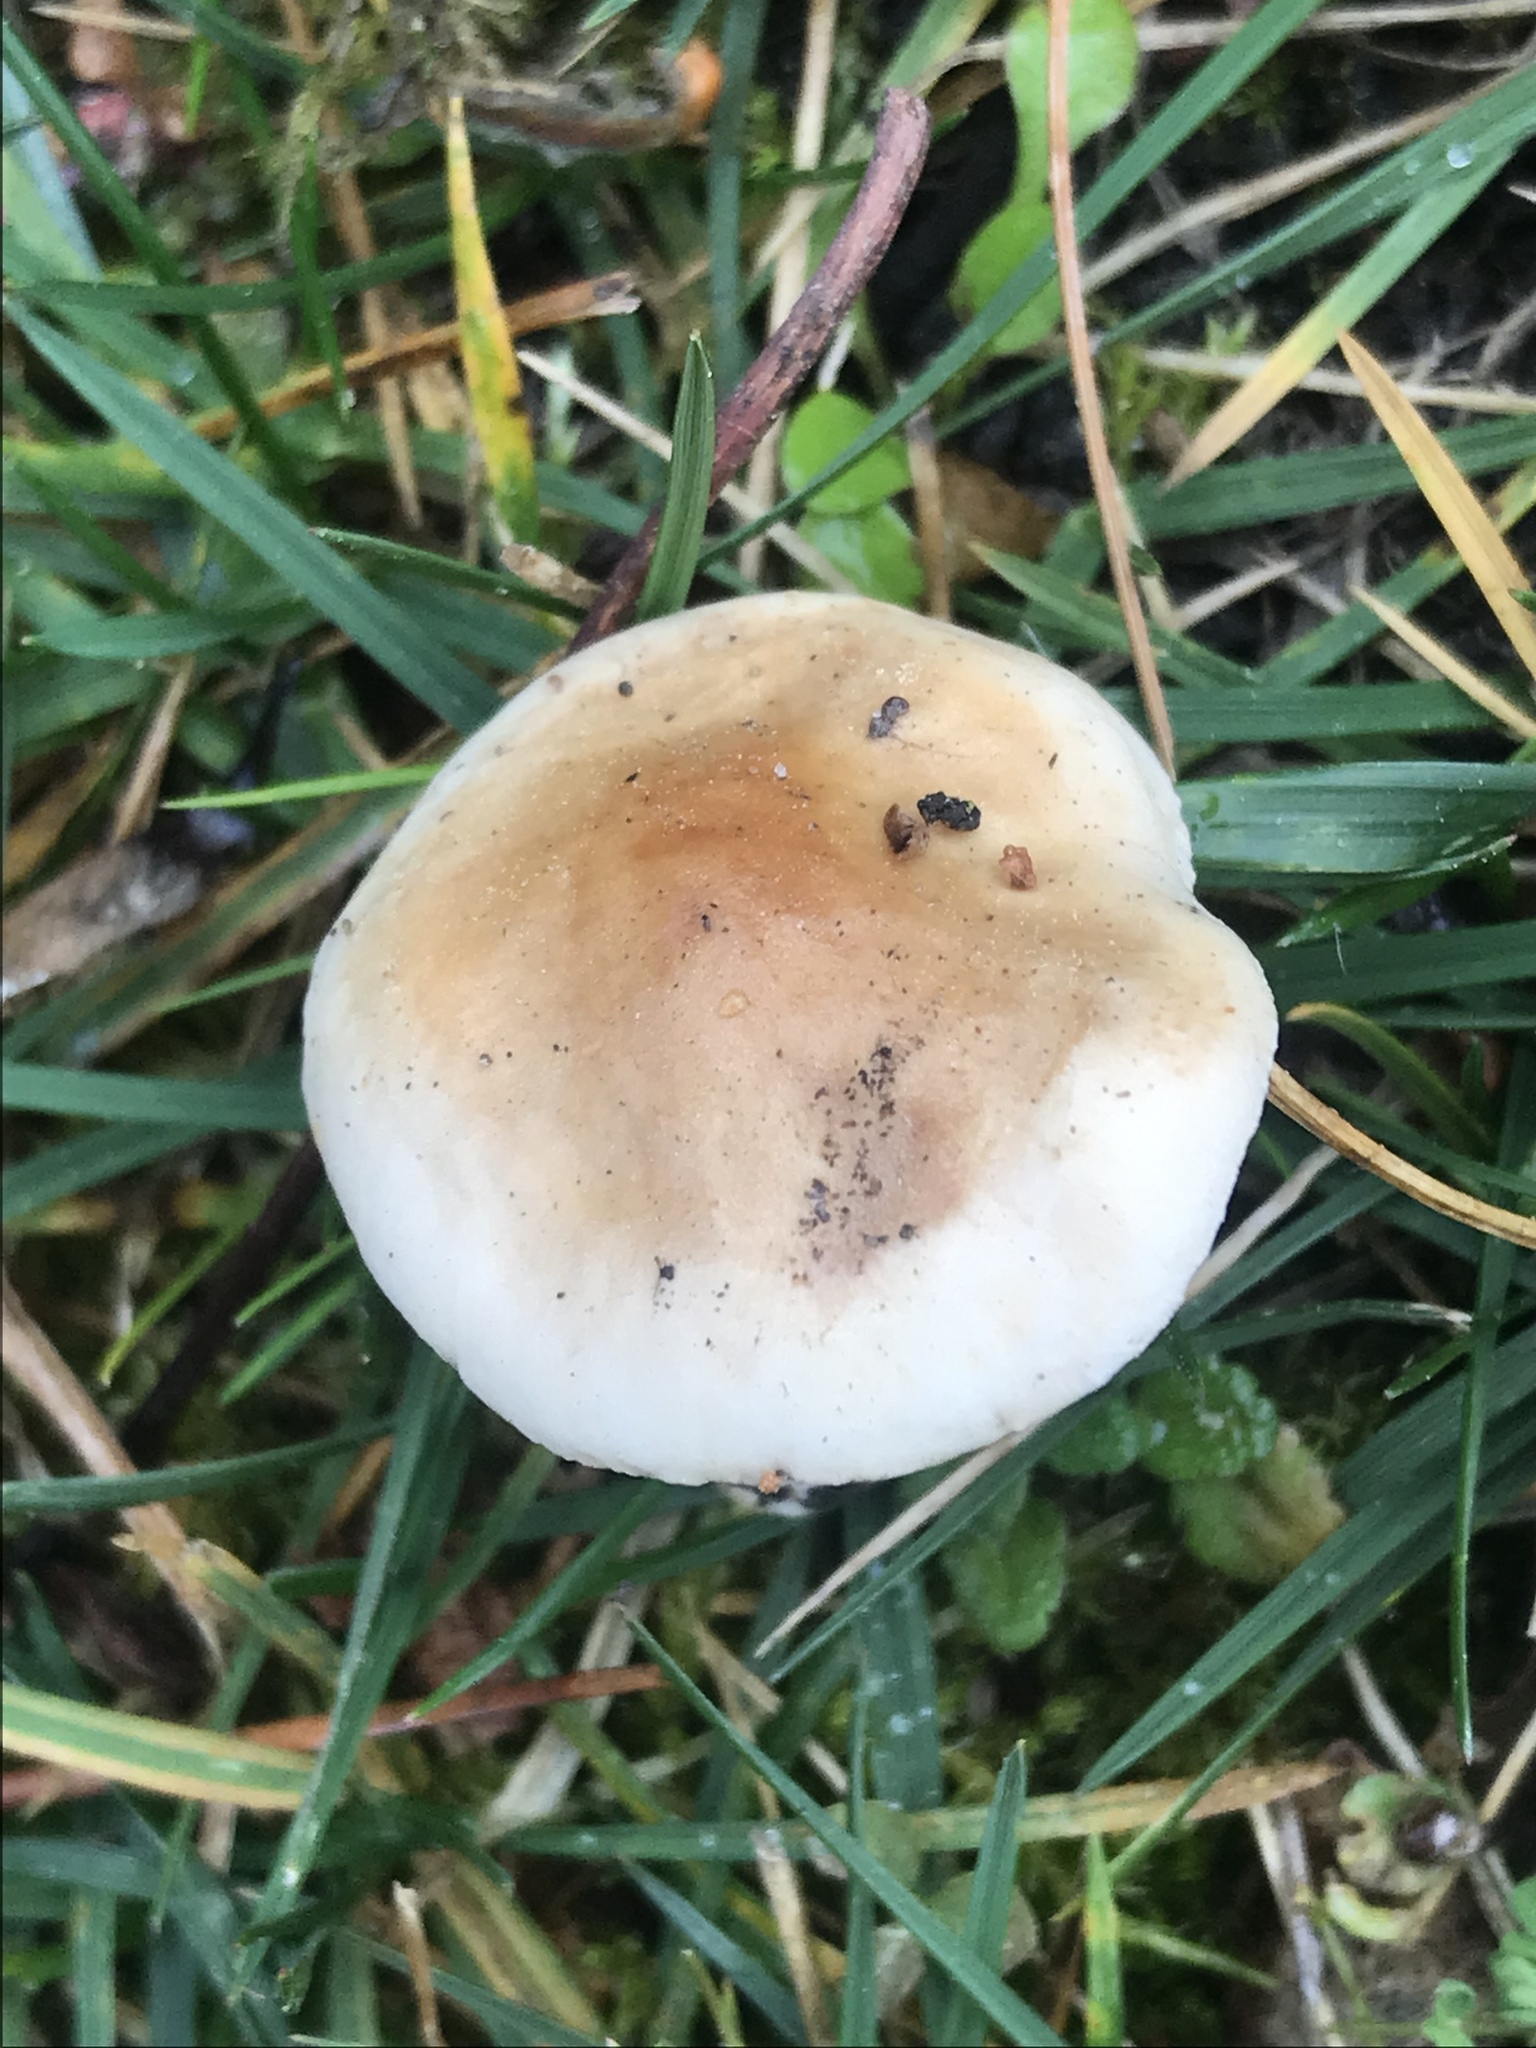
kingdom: Fungi
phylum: Basidiomycota
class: Agaricomycetes
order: Agaricales
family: Hymenogastraceae
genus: Hebeloma
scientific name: Hebeloma leucosarx
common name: Birch poisonpie
